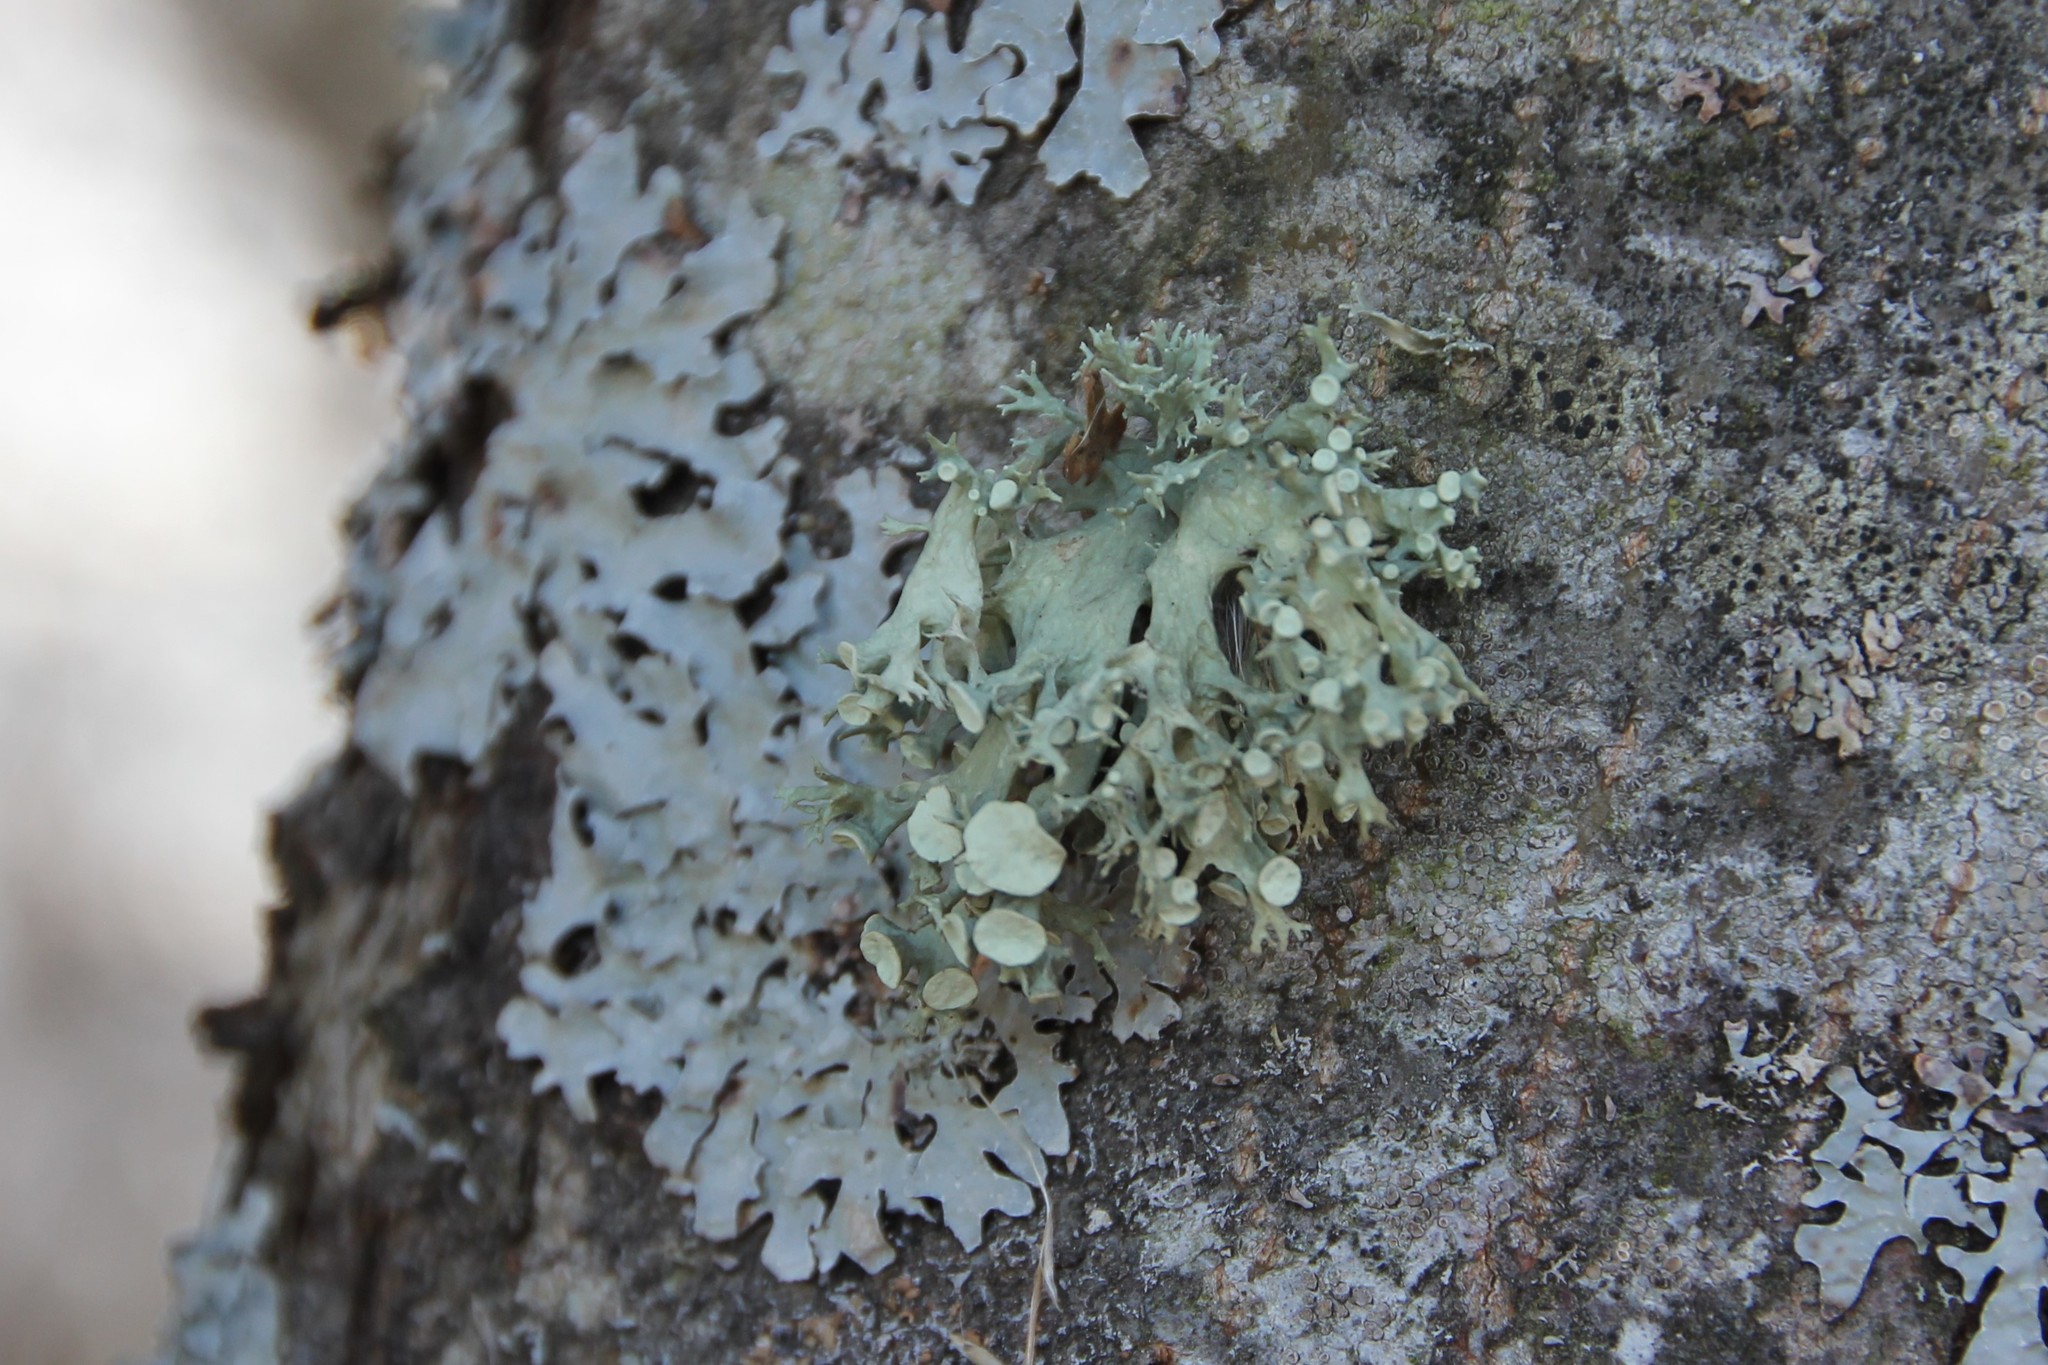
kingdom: Fungi
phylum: Ascomycota
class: Lecanoromycetes
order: Lecanorales
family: Ramalinaceae
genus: Ramalina
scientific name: Ramalina fastigiata
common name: Dotted ribbon lichen
